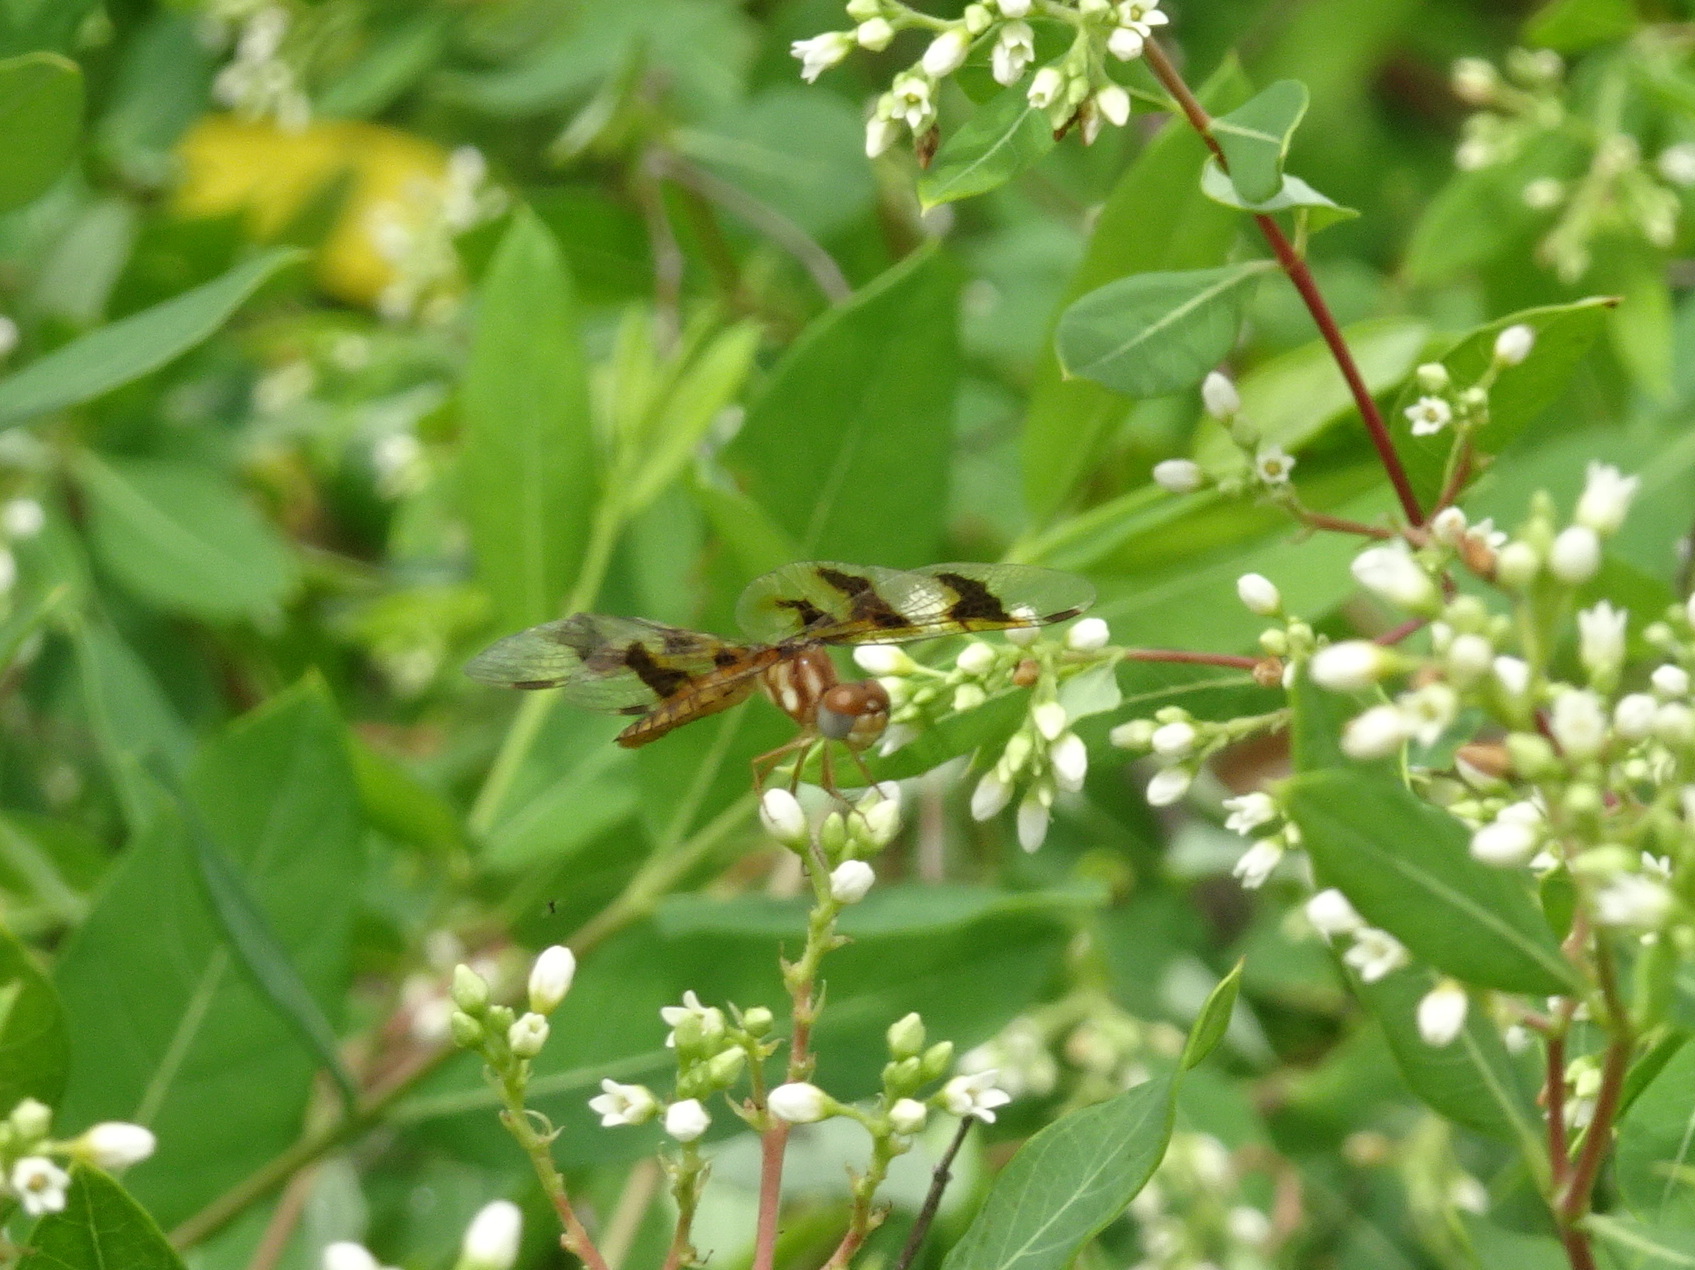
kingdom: Animalia
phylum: Arthropoda
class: Insecta
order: Odonata
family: Libellulidae
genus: Perithemis
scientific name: Perithemis tenera
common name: Eastern amberwing
